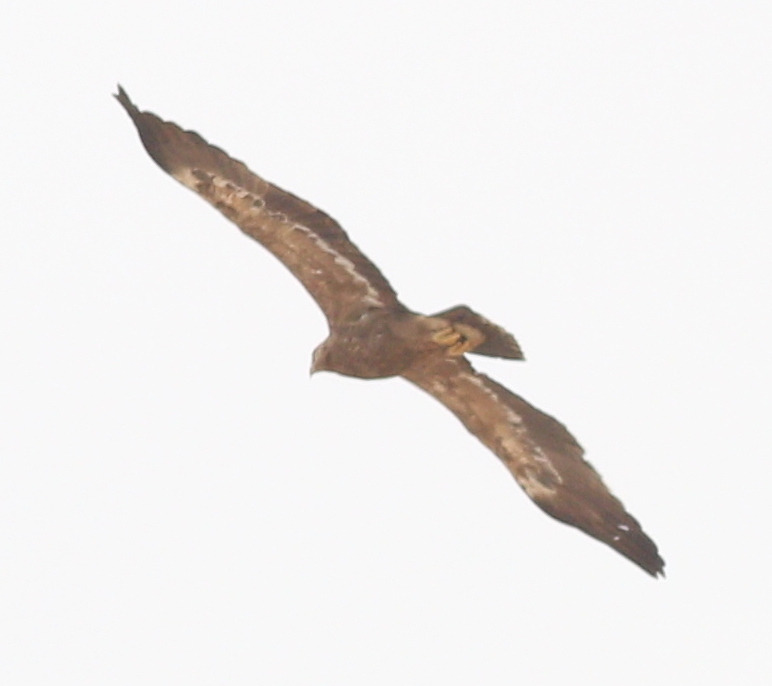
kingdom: Animalia
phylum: Chordata
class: Aves
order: Accipitriformes
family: Accipitridae
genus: Aquila
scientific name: Aquila nipalensis
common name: Steppe eagle
